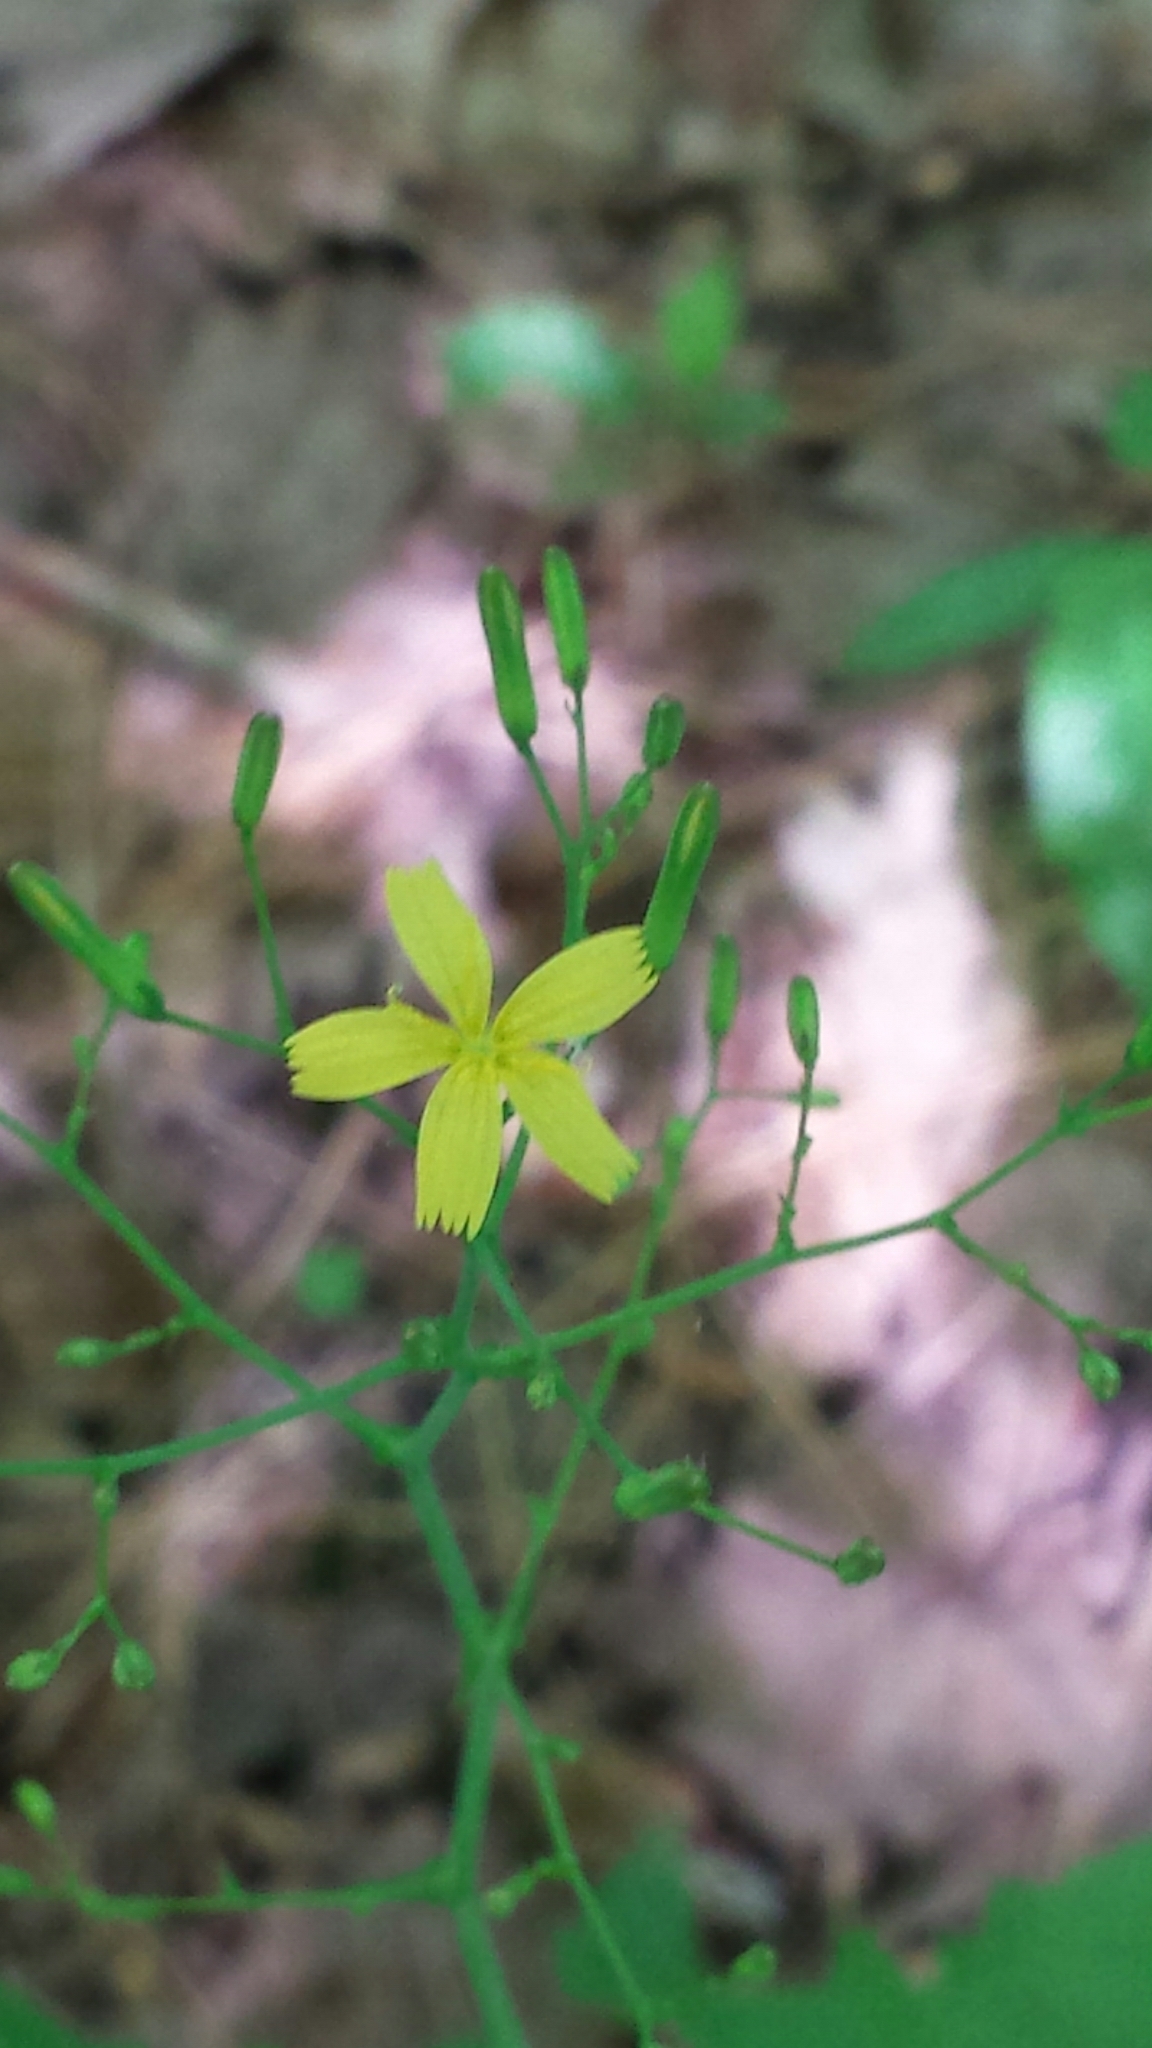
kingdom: Plantae
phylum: Tracheophyta
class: Magnoliopsida
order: Asterales
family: Asteraceae
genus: Mycelis
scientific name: Mycelis muralis
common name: Wall lettuce
